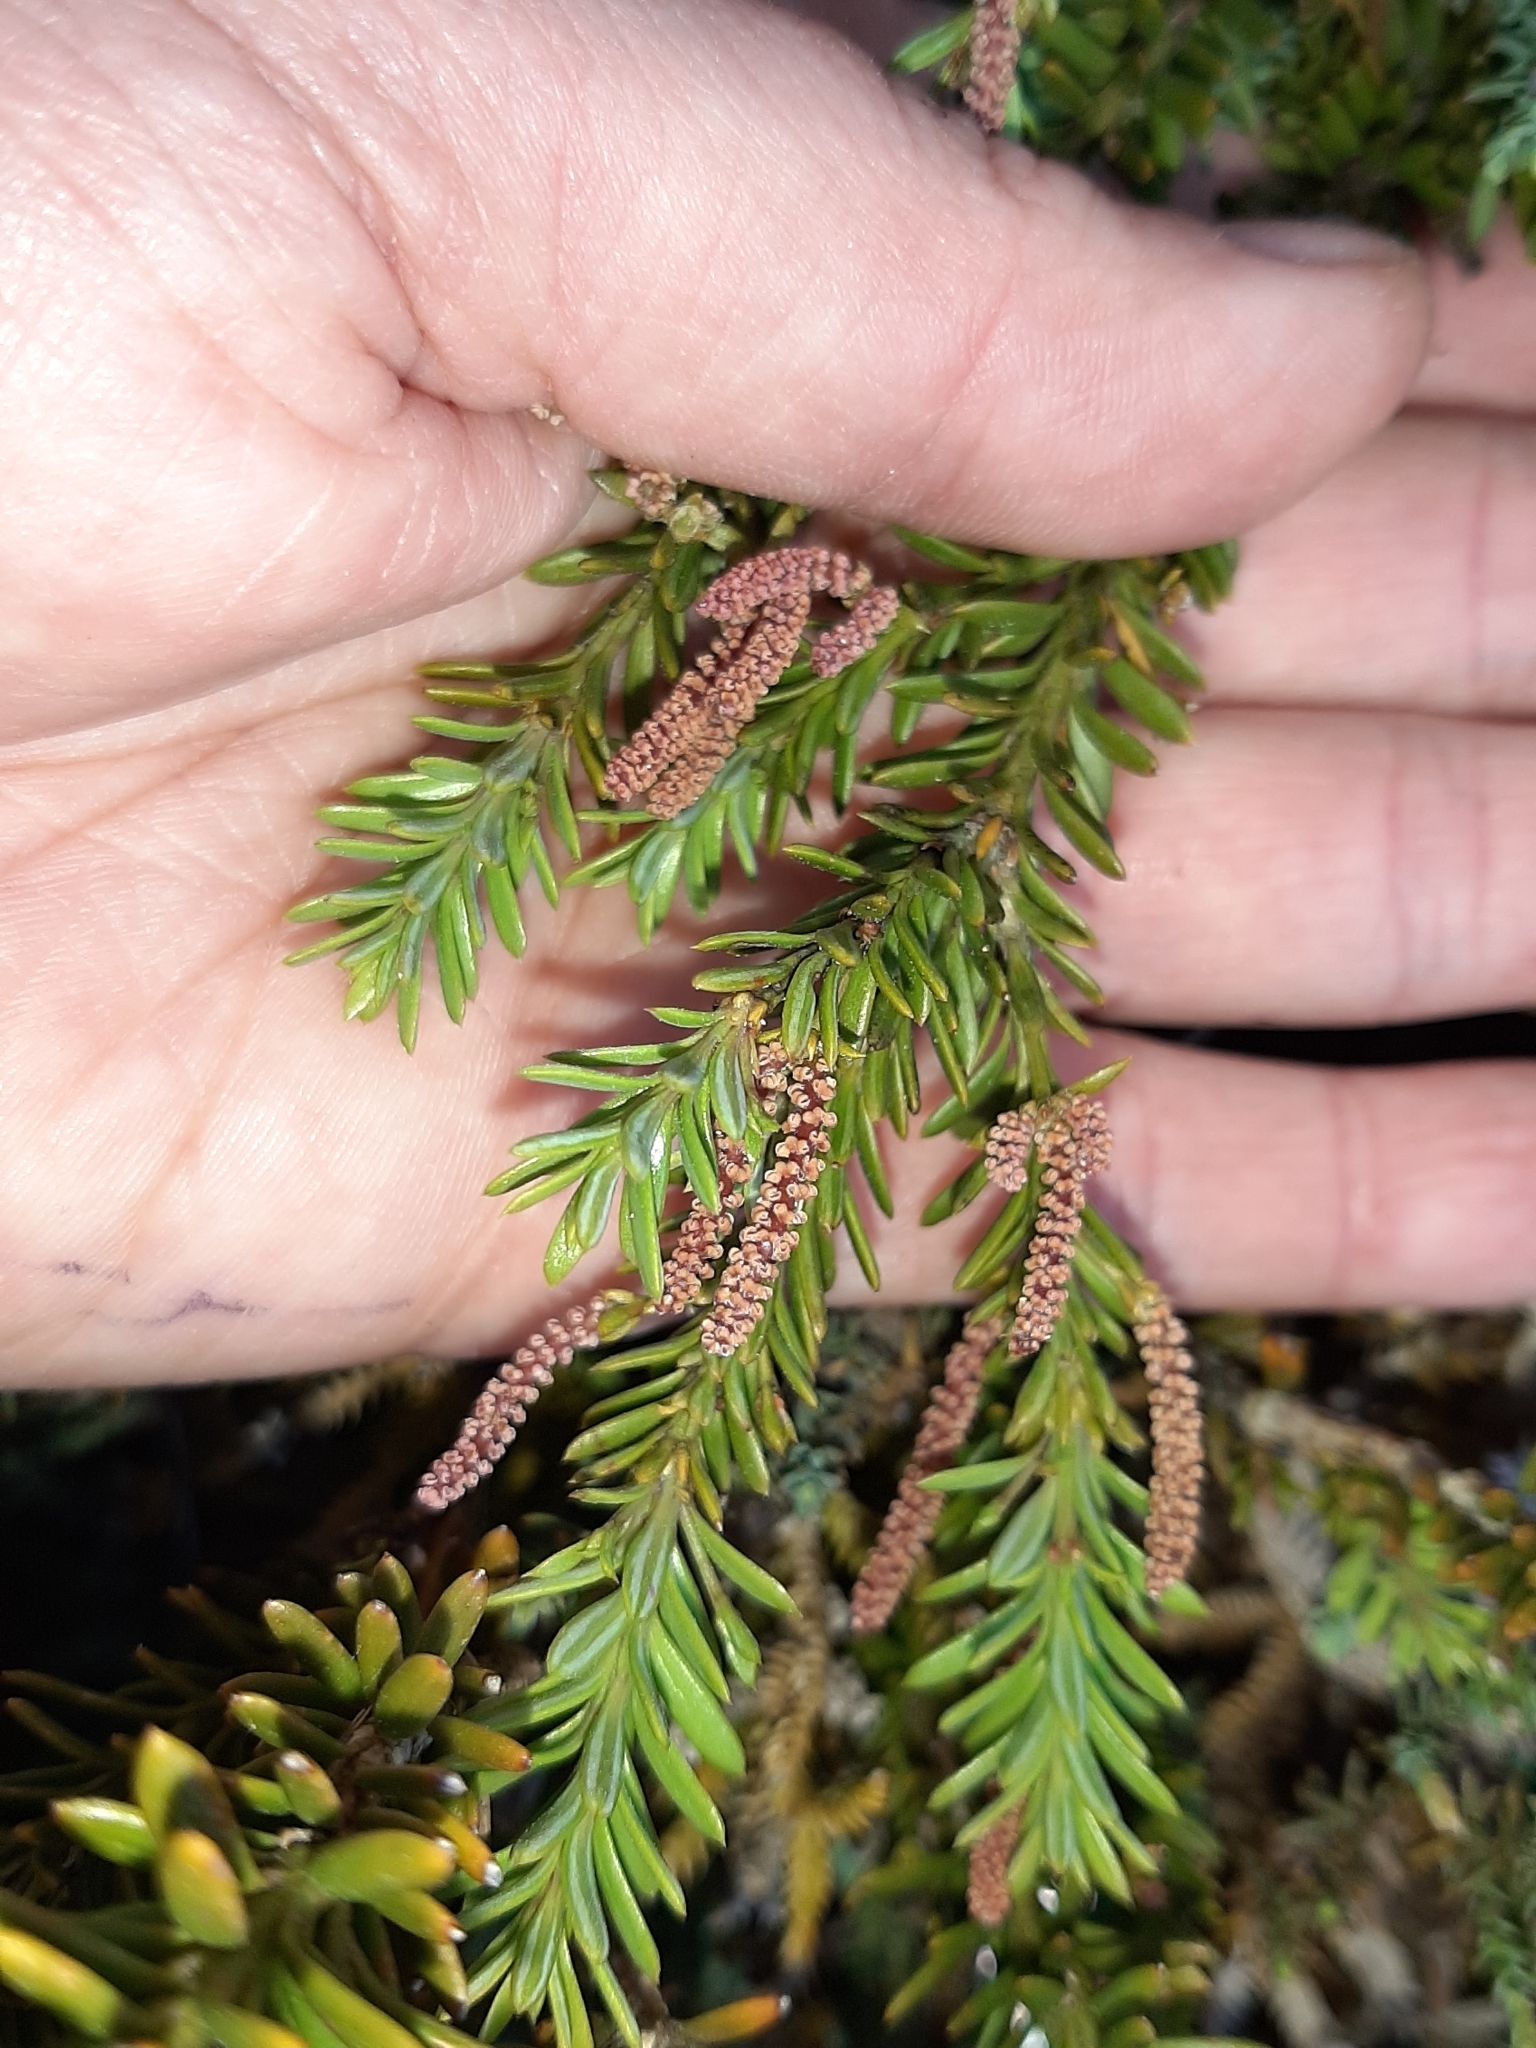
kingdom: Plantae
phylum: Tracheophyta
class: Pinopsida
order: Pinales
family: Podocarpaceae
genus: Podocarpus
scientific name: Podocarpus nivalis
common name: Alpine totara
